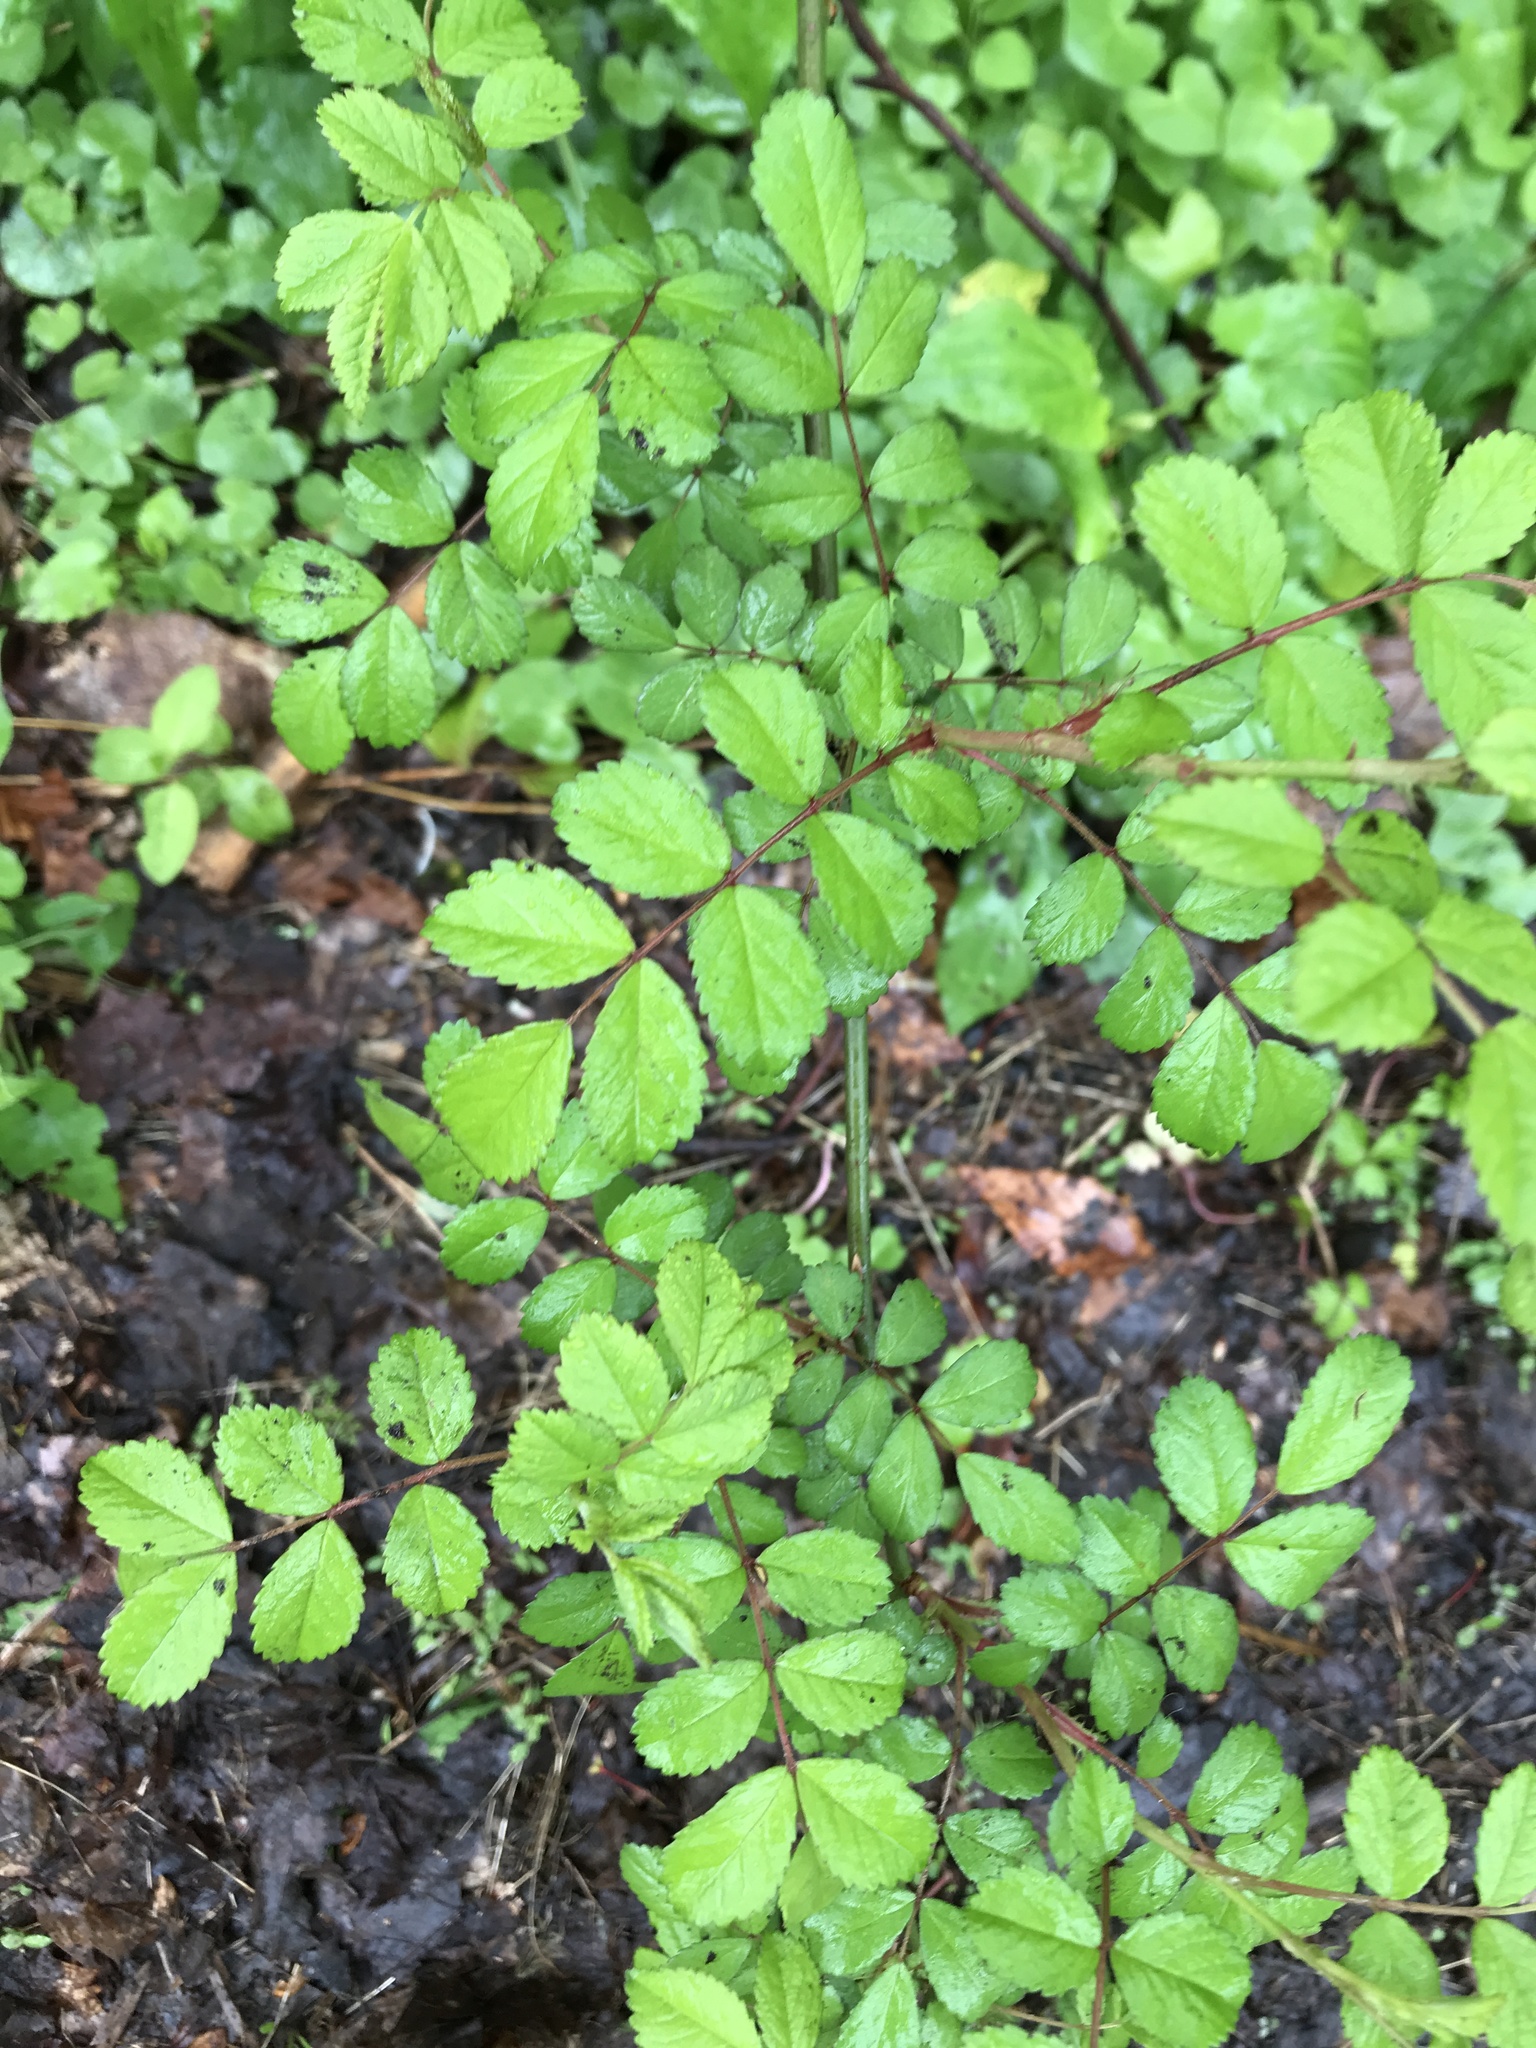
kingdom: Plantae
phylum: Tracheophyta
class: Magnoliopsida
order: Rosales
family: Rosaceae
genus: Rosa
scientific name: Rosa multiflora
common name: Multiflora rose
